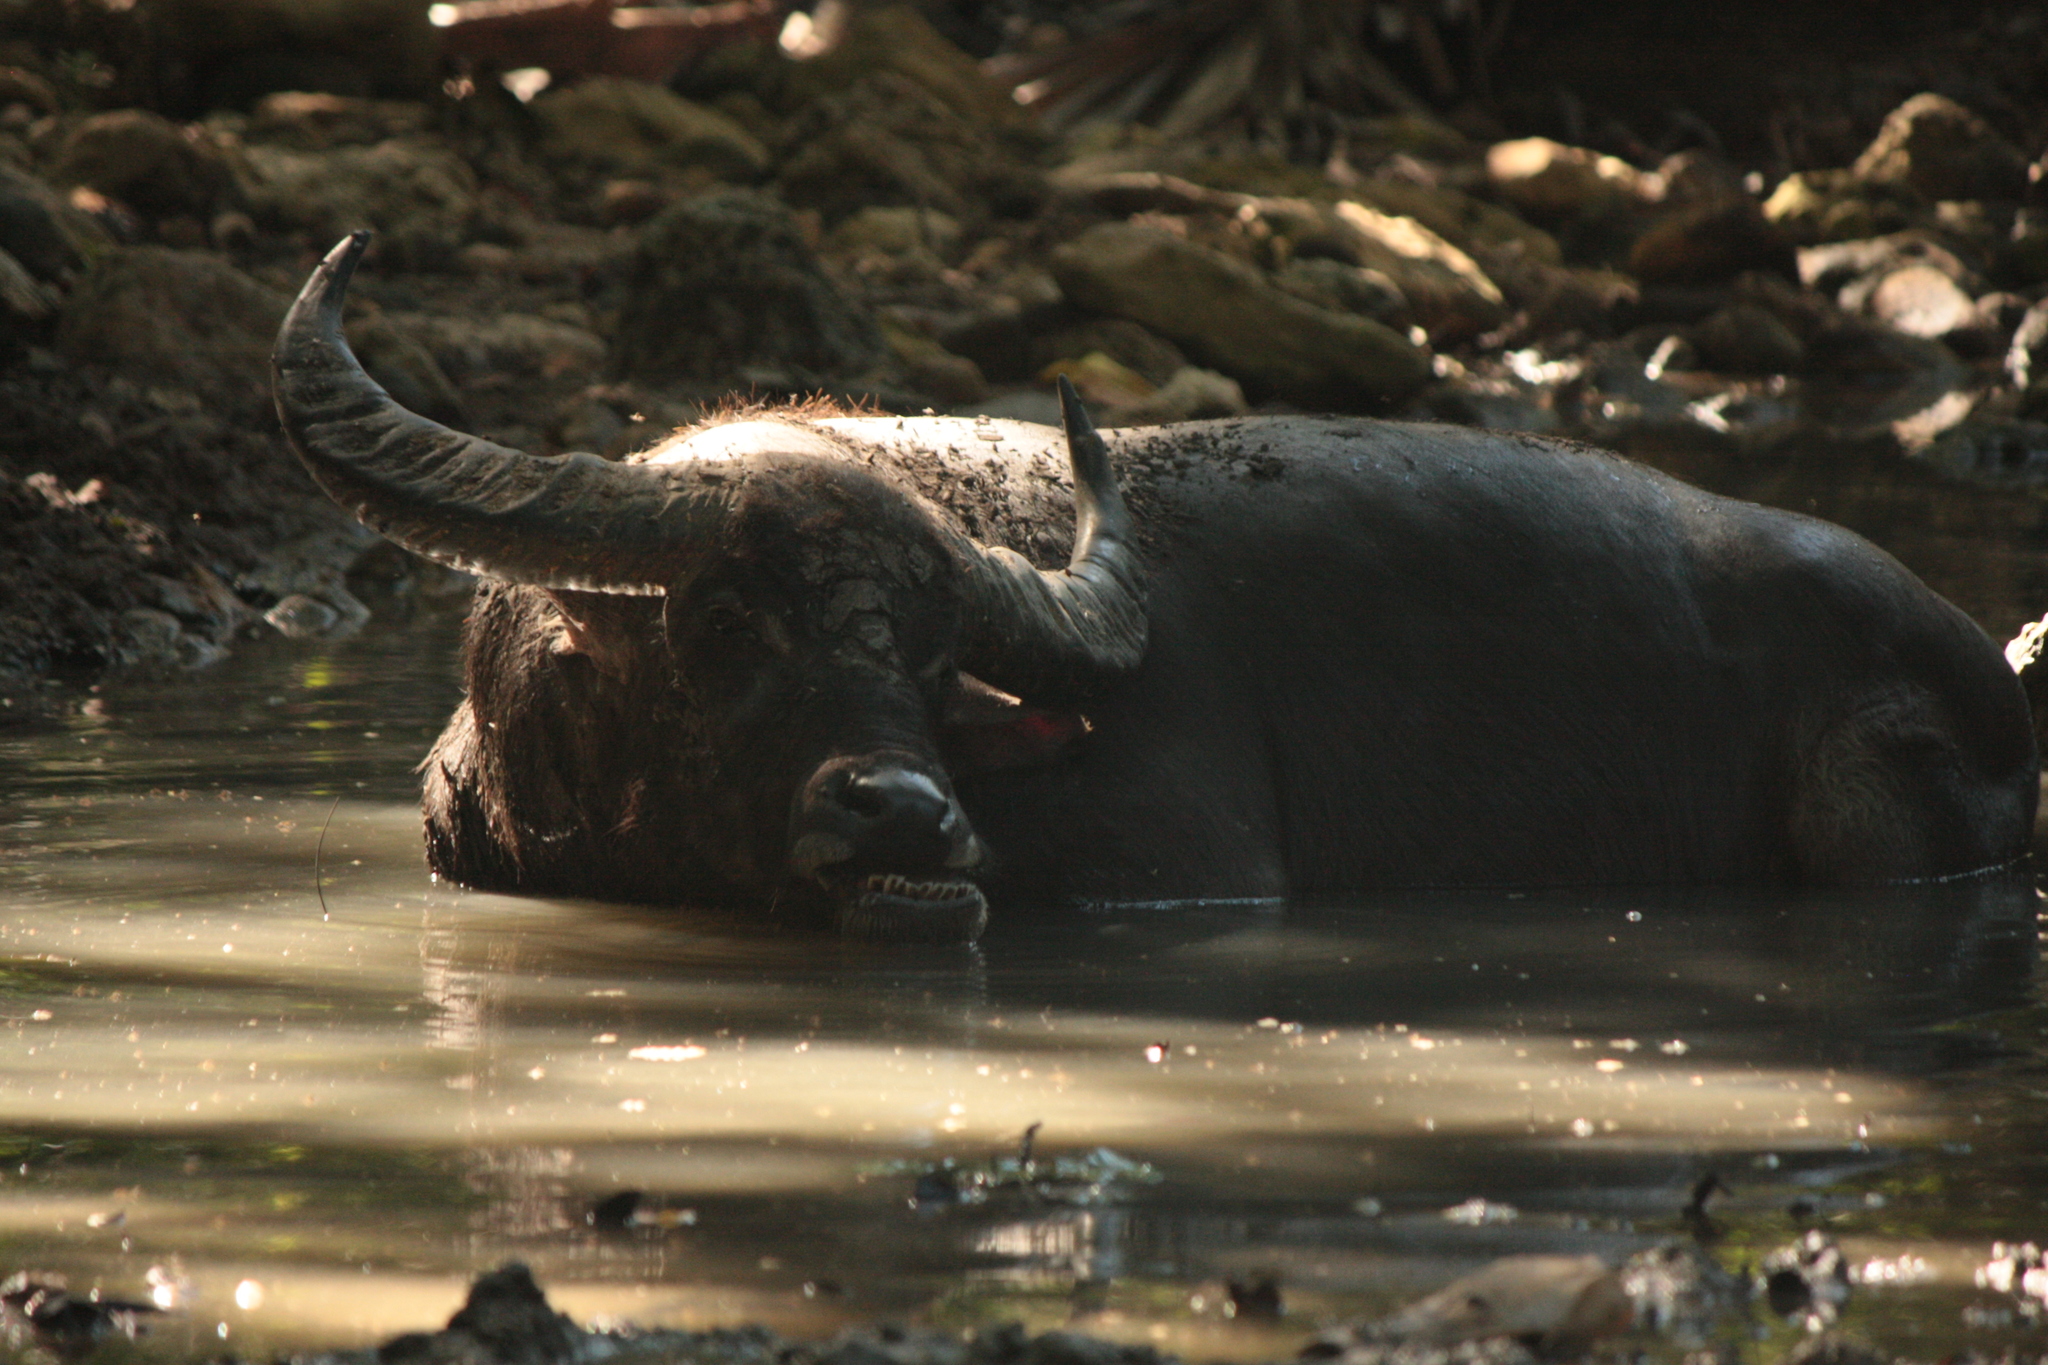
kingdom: Animalia
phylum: Chordata
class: Mammalia
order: Artiodactyla
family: Bovidae
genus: Bubalus
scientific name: Bubalus bubalis
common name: Water buffalo
